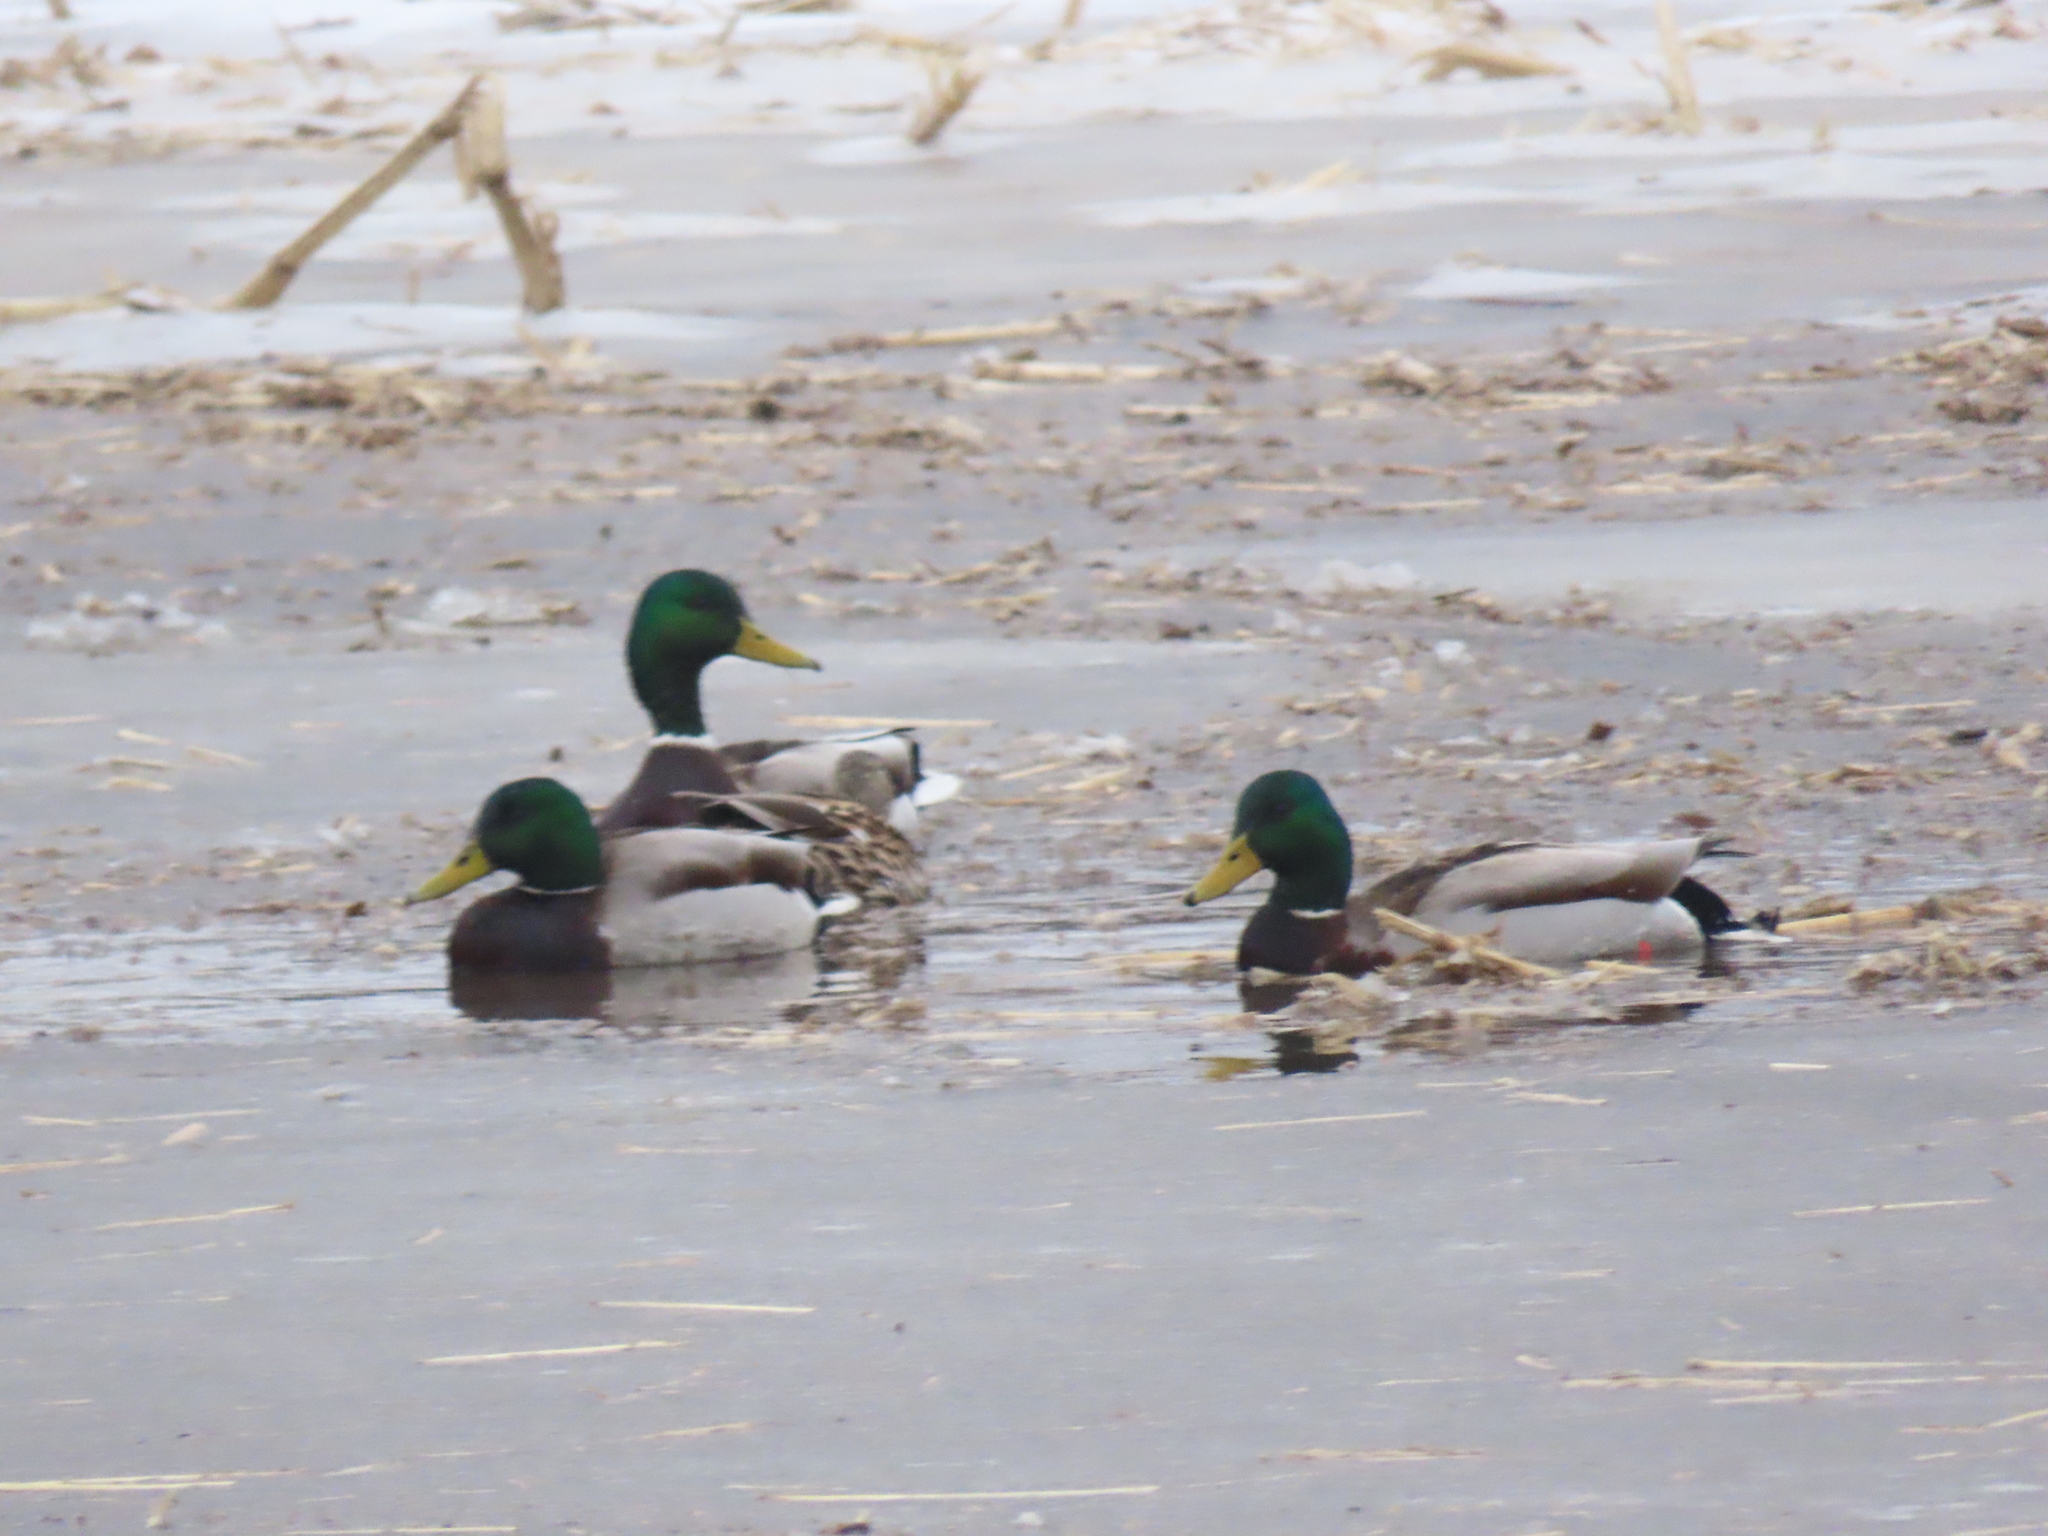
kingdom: Animalia
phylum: Chordata
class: Aves
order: Anseriformes
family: Anatidae
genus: Anas
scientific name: Anas platyrhynchos
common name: Mallard
